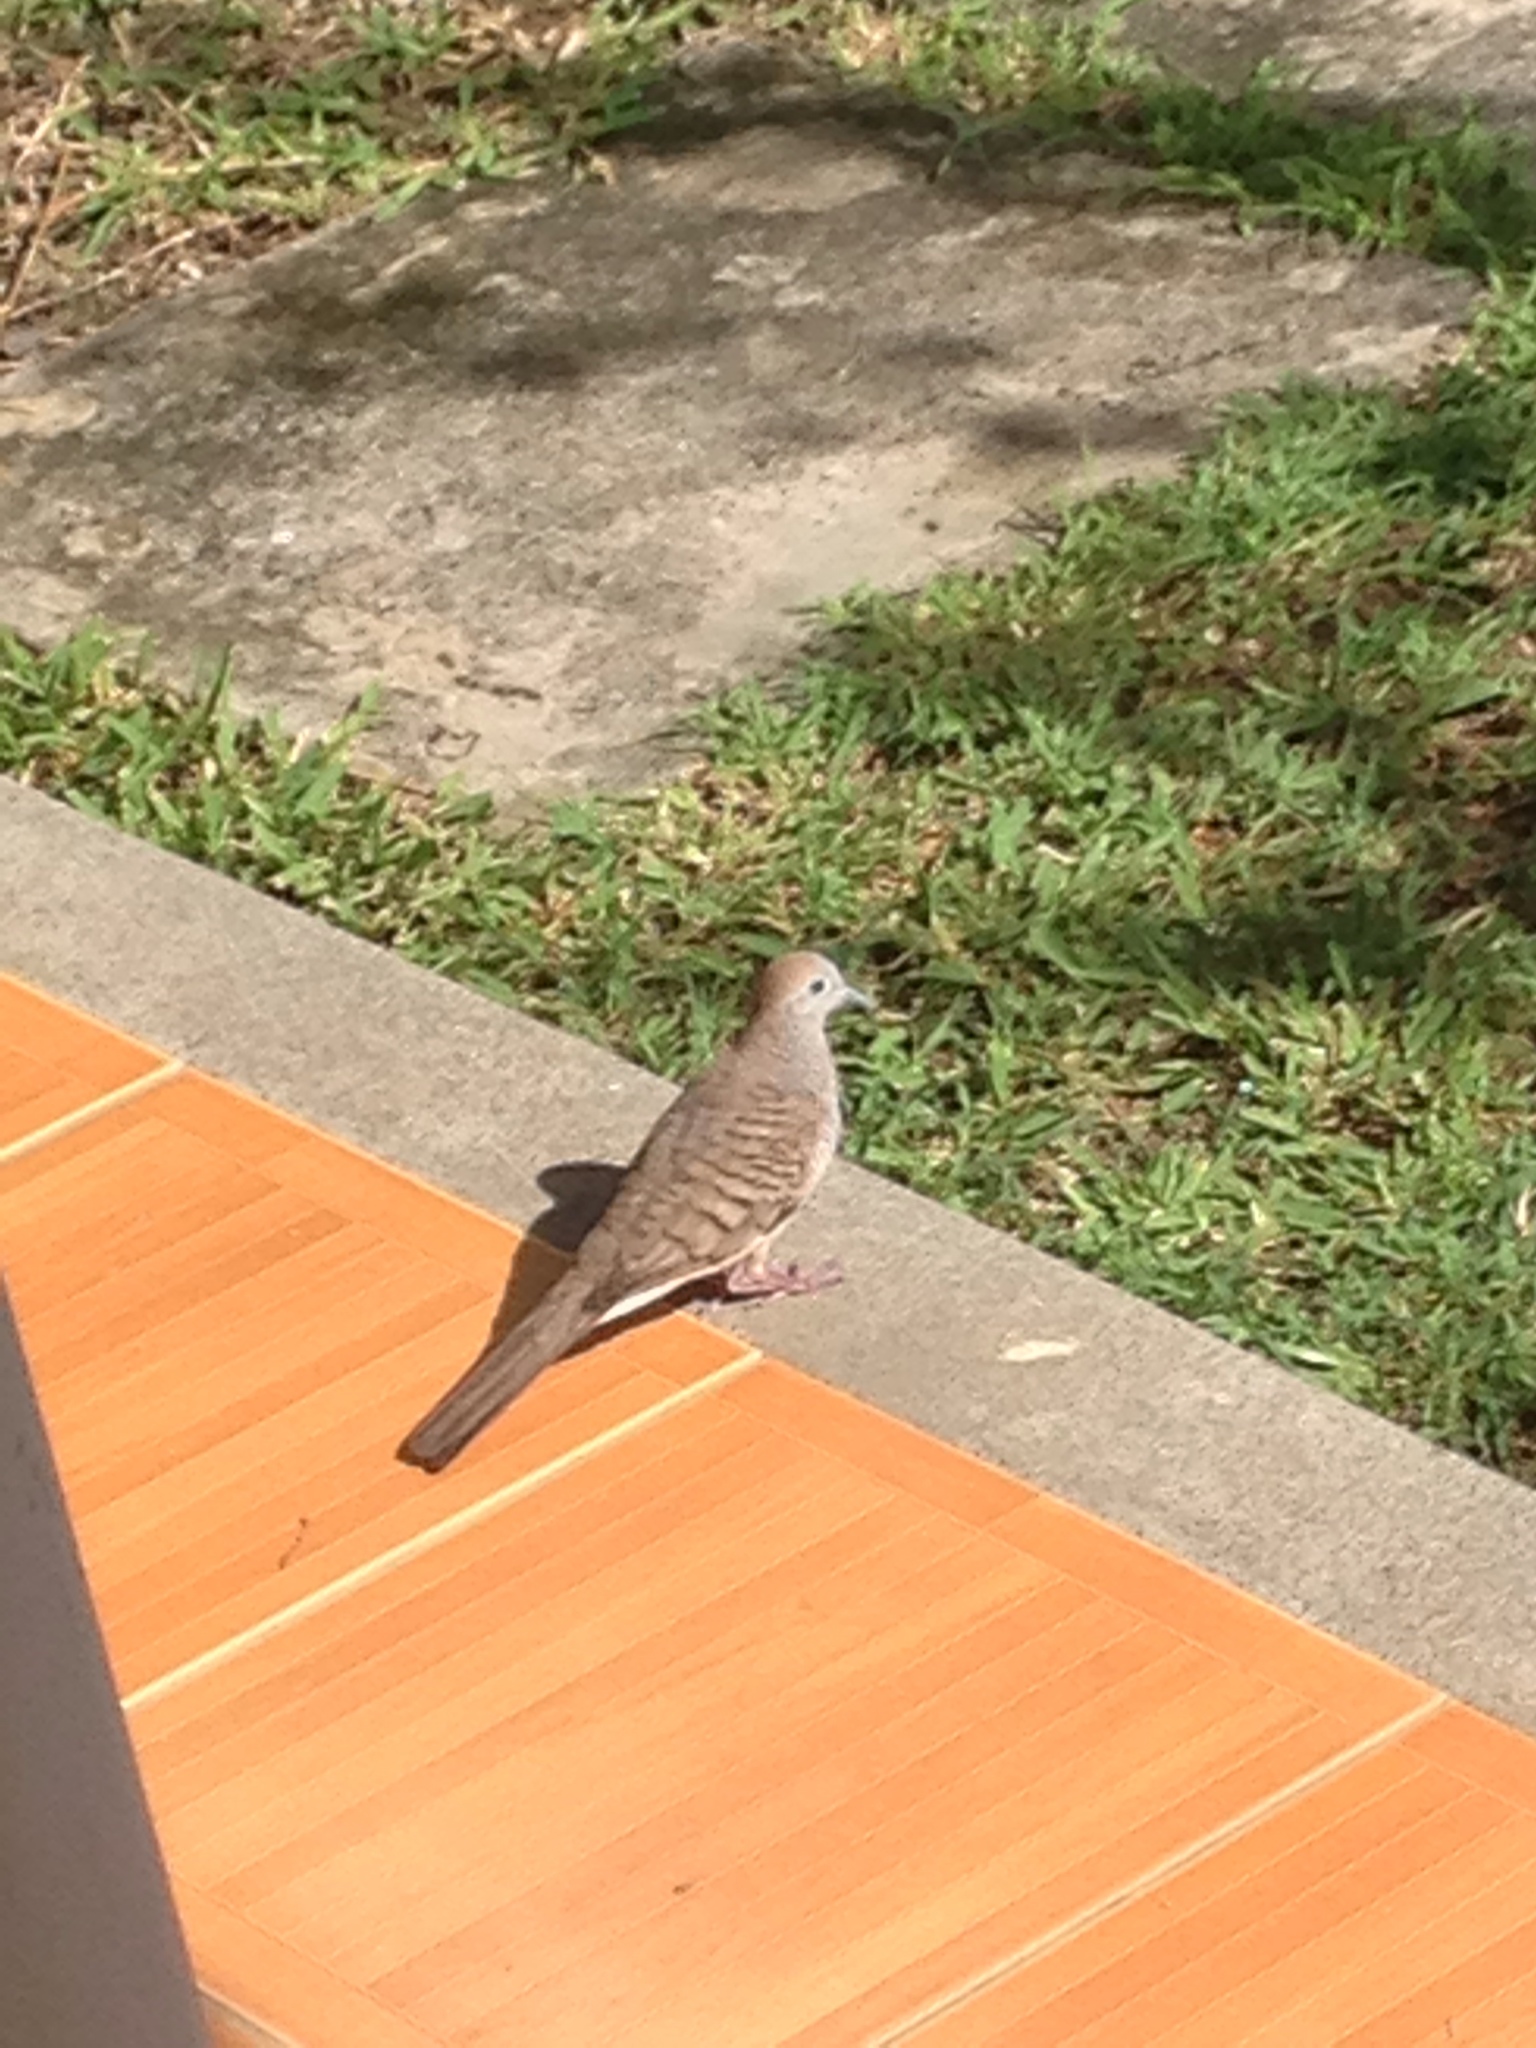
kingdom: Animalia
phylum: Chordata
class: Aves
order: Columbiformes
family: Columbidae
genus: Geopelia
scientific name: Geopelia striata
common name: Zebra dove
